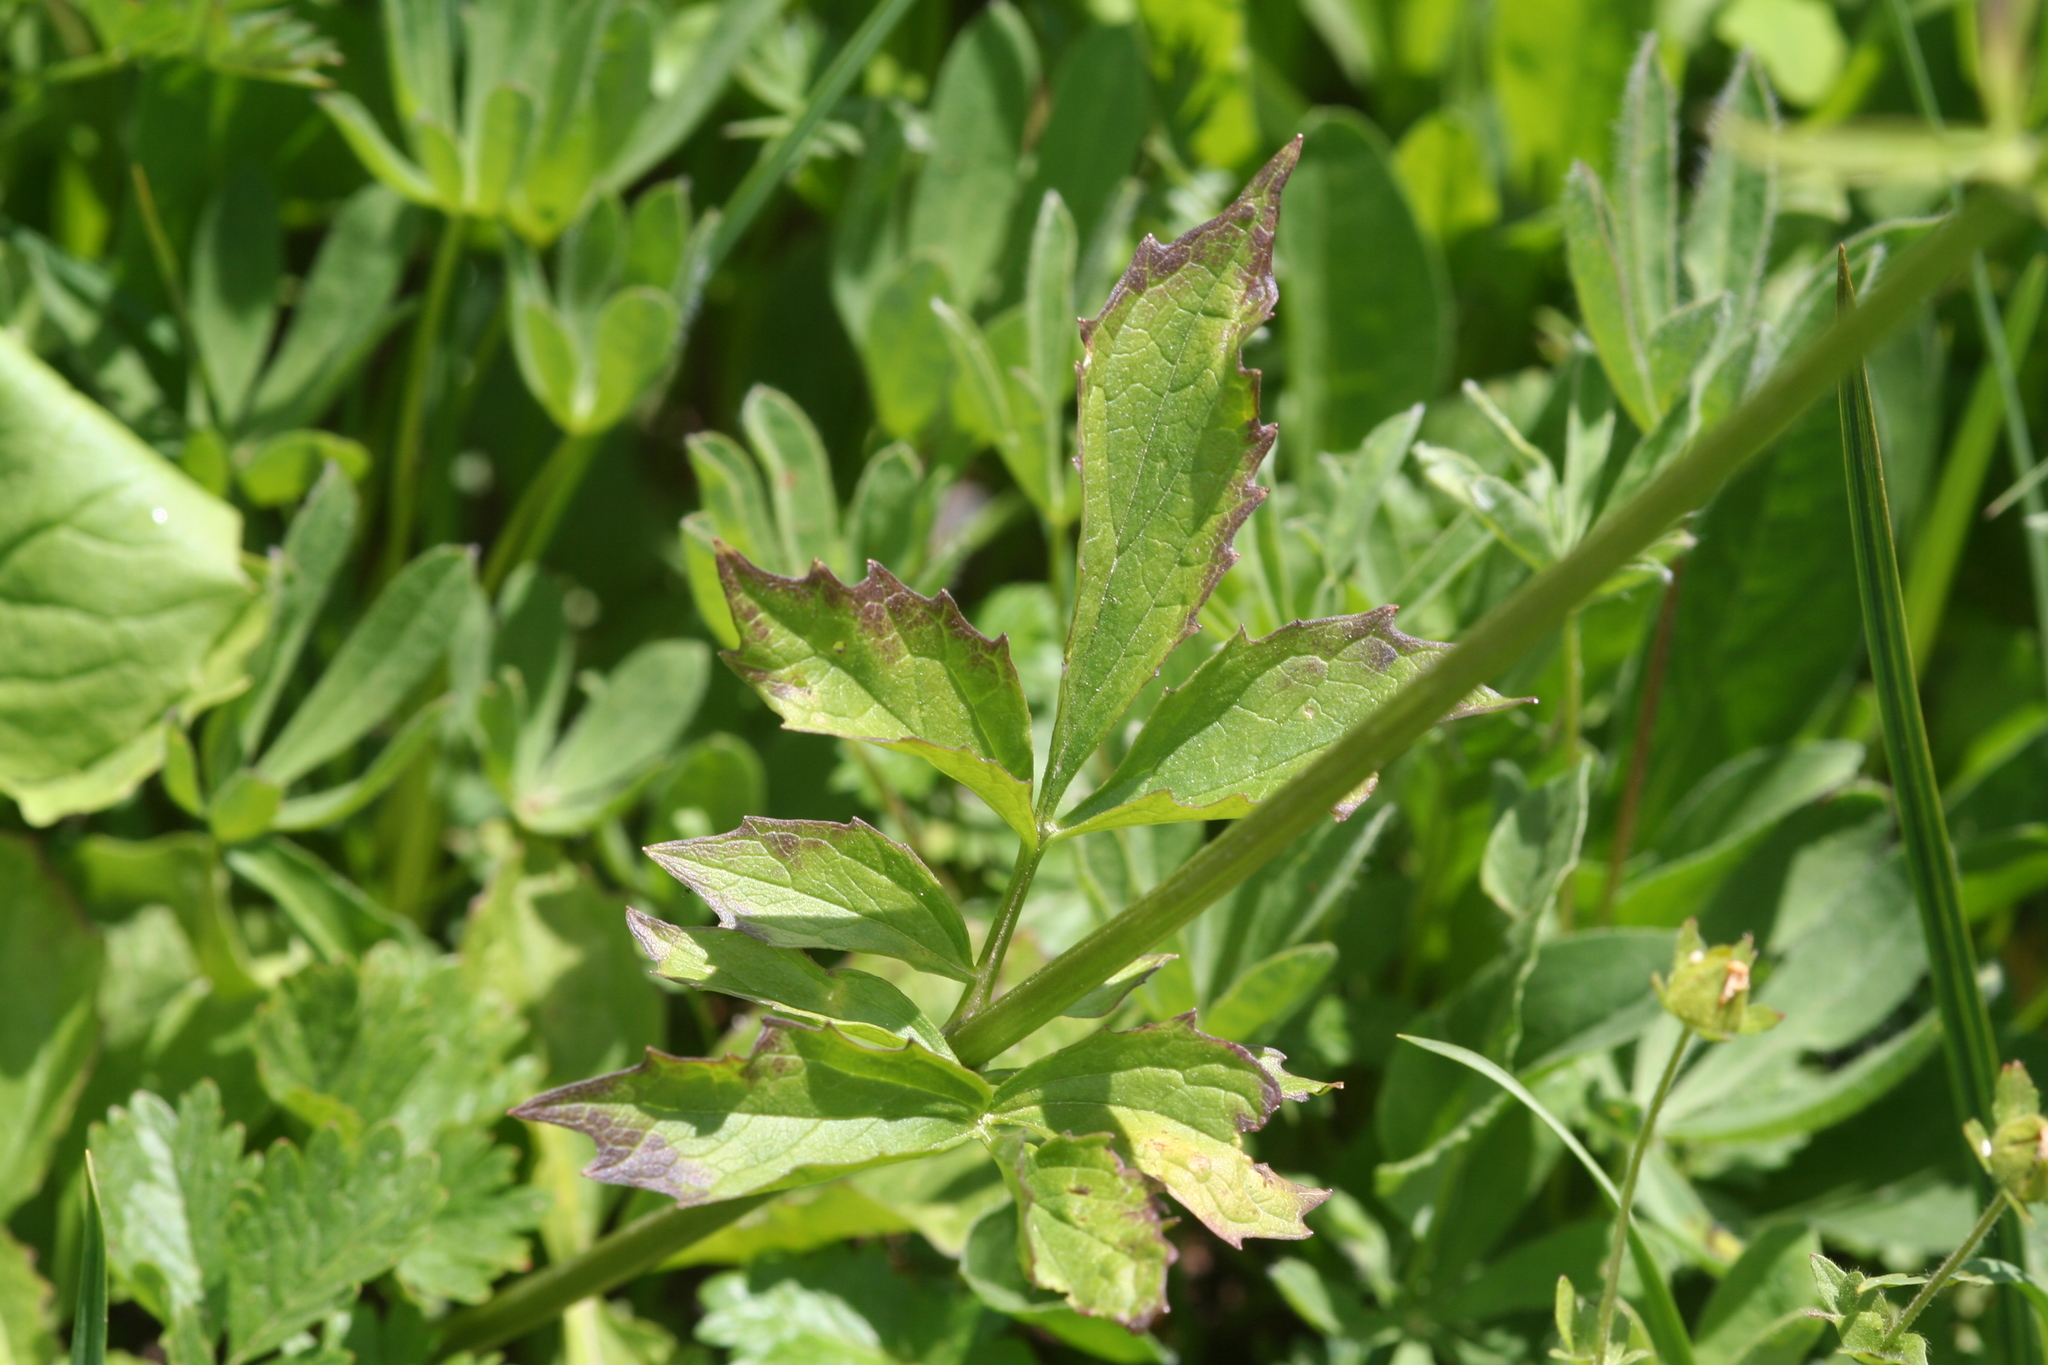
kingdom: Plantae
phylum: Tracheophyta
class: Magnoliopsida
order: Dipsacales
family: Caprifoliaceae
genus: Valeriana
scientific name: Valeriana sitchensis
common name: Pacific valerian
